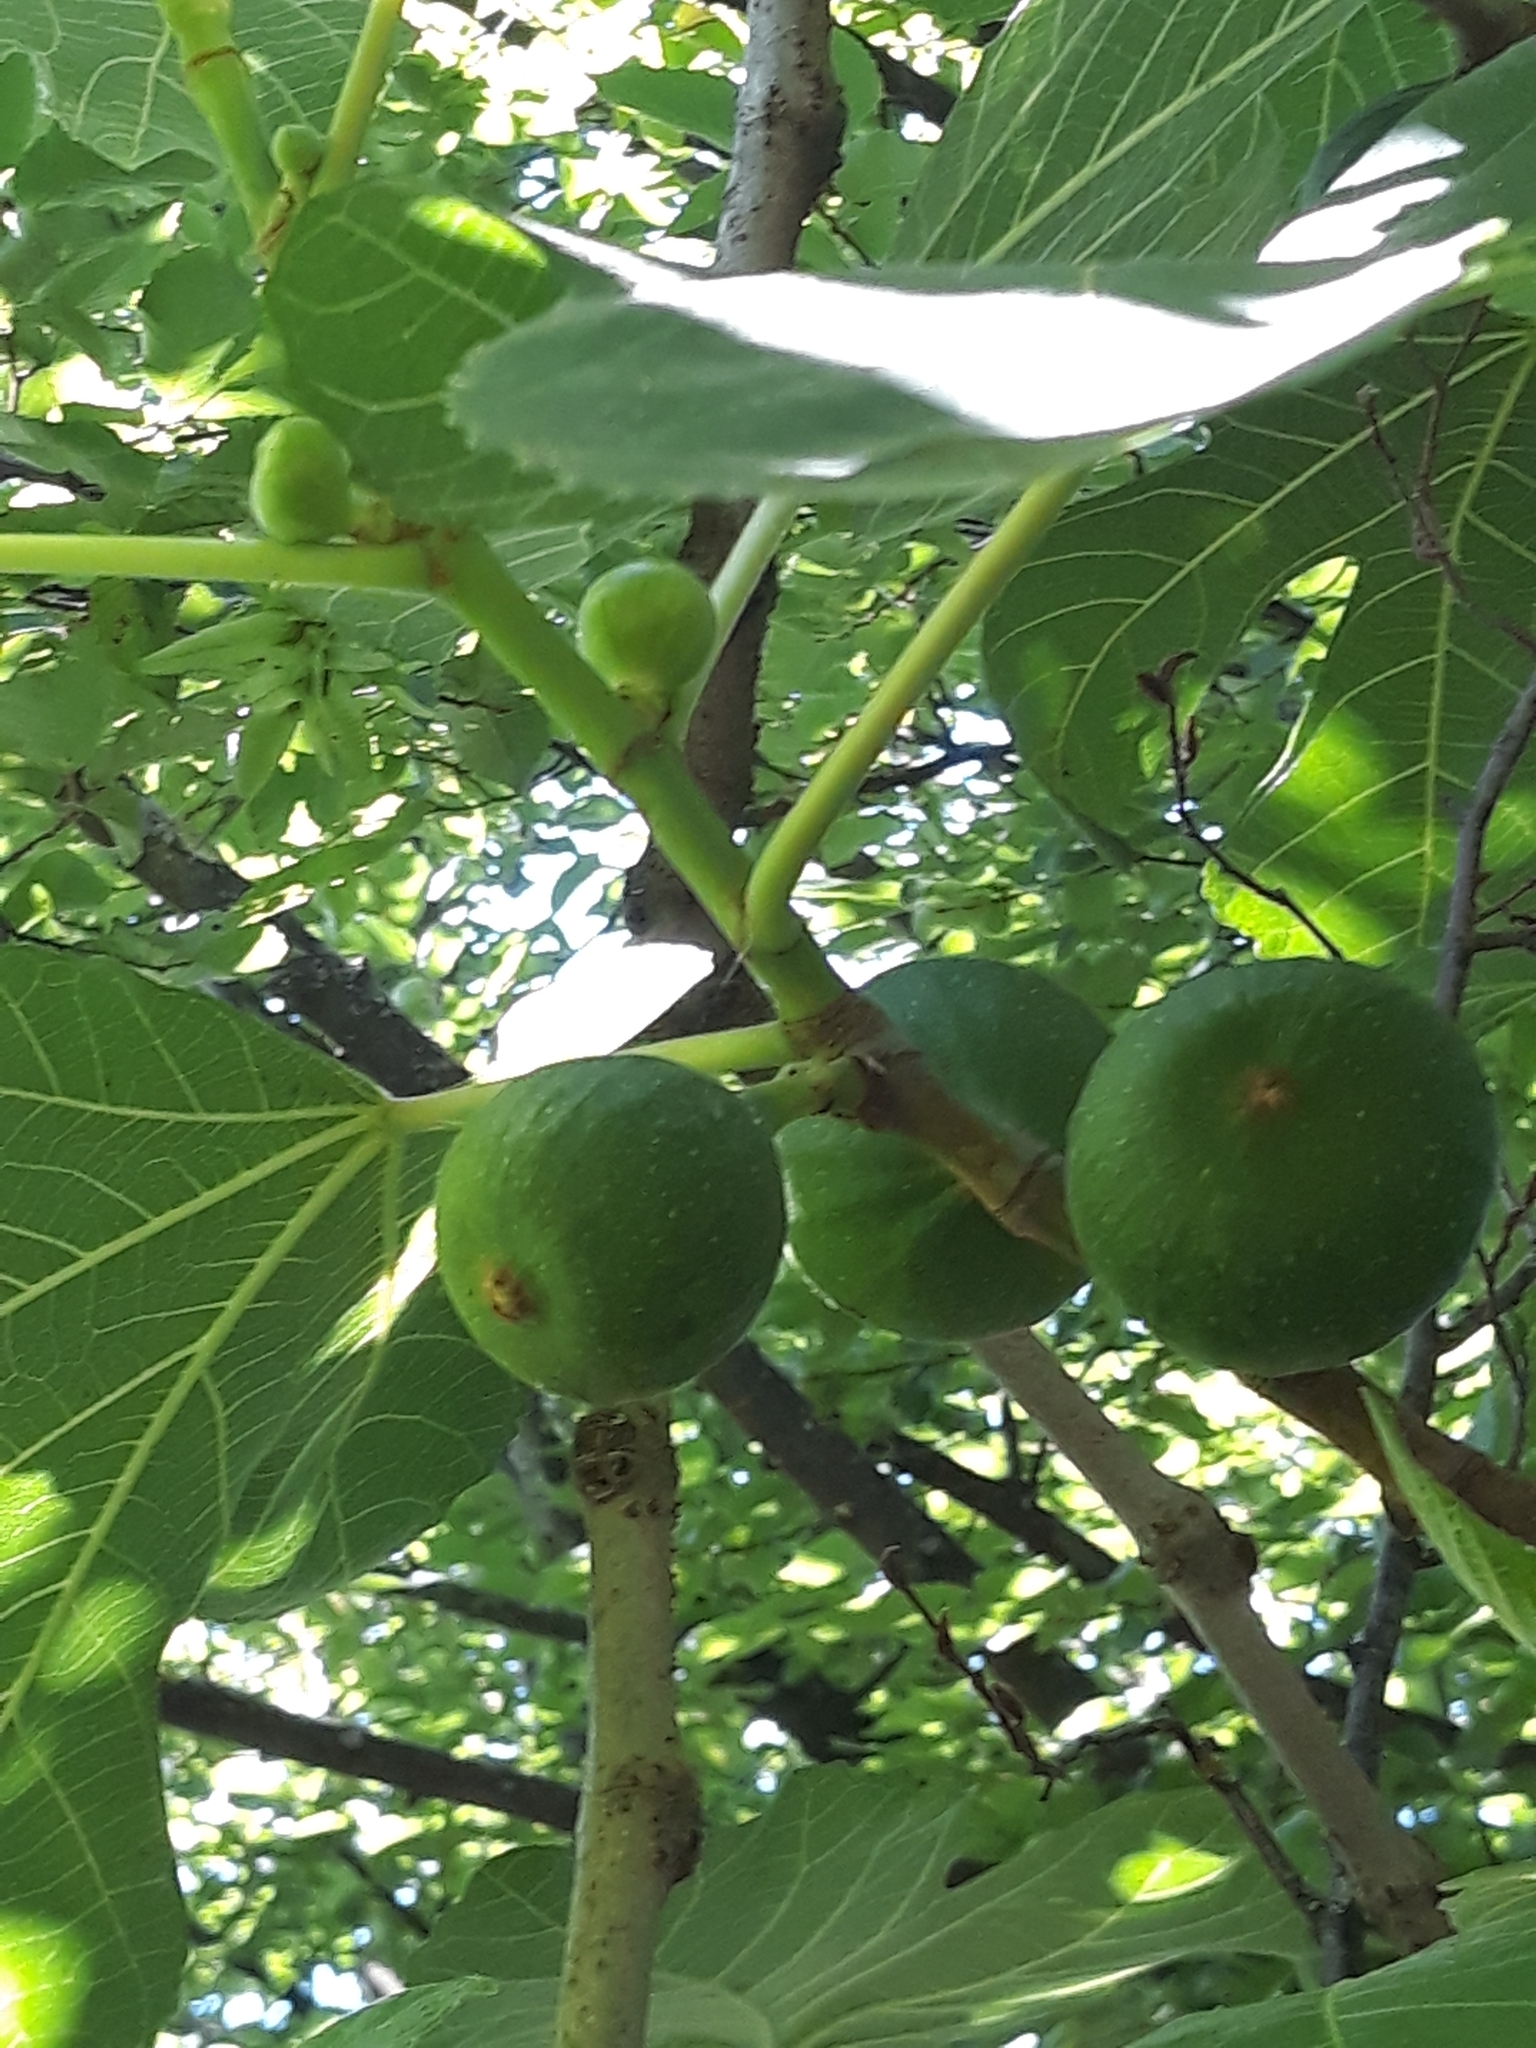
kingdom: Plantae
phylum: Tracheophyta
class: Magnoliopsida
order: Rosales
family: Moraceae
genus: Ficus
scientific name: Ficus carica
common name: Fig
